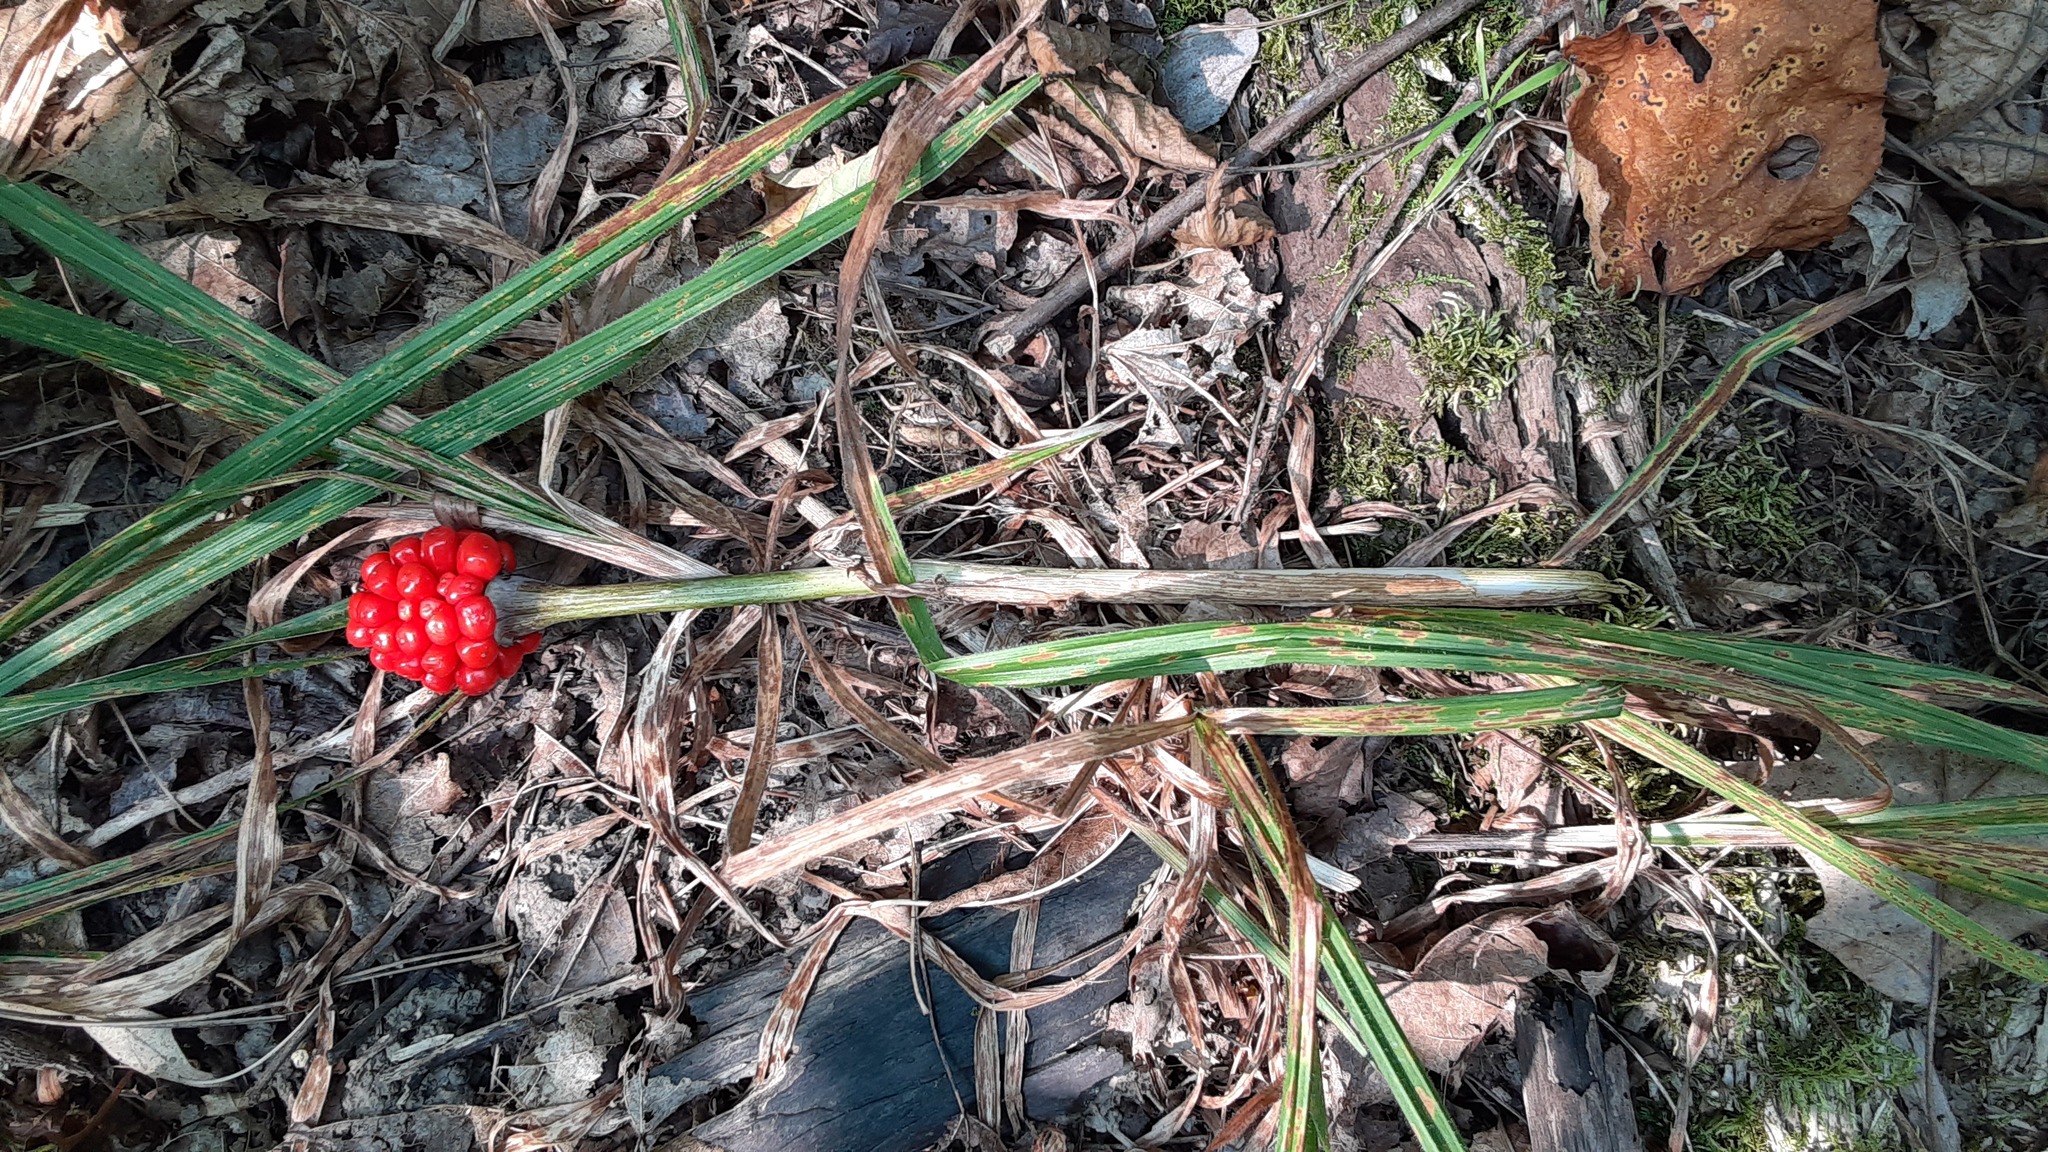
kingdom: Plantae
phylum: Tracheophyta
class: Liliopsida
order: Alismatales
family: Araceae
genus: Arisaema
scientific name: Arisaema triphyllum
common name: Jack-in-the-pulpit
